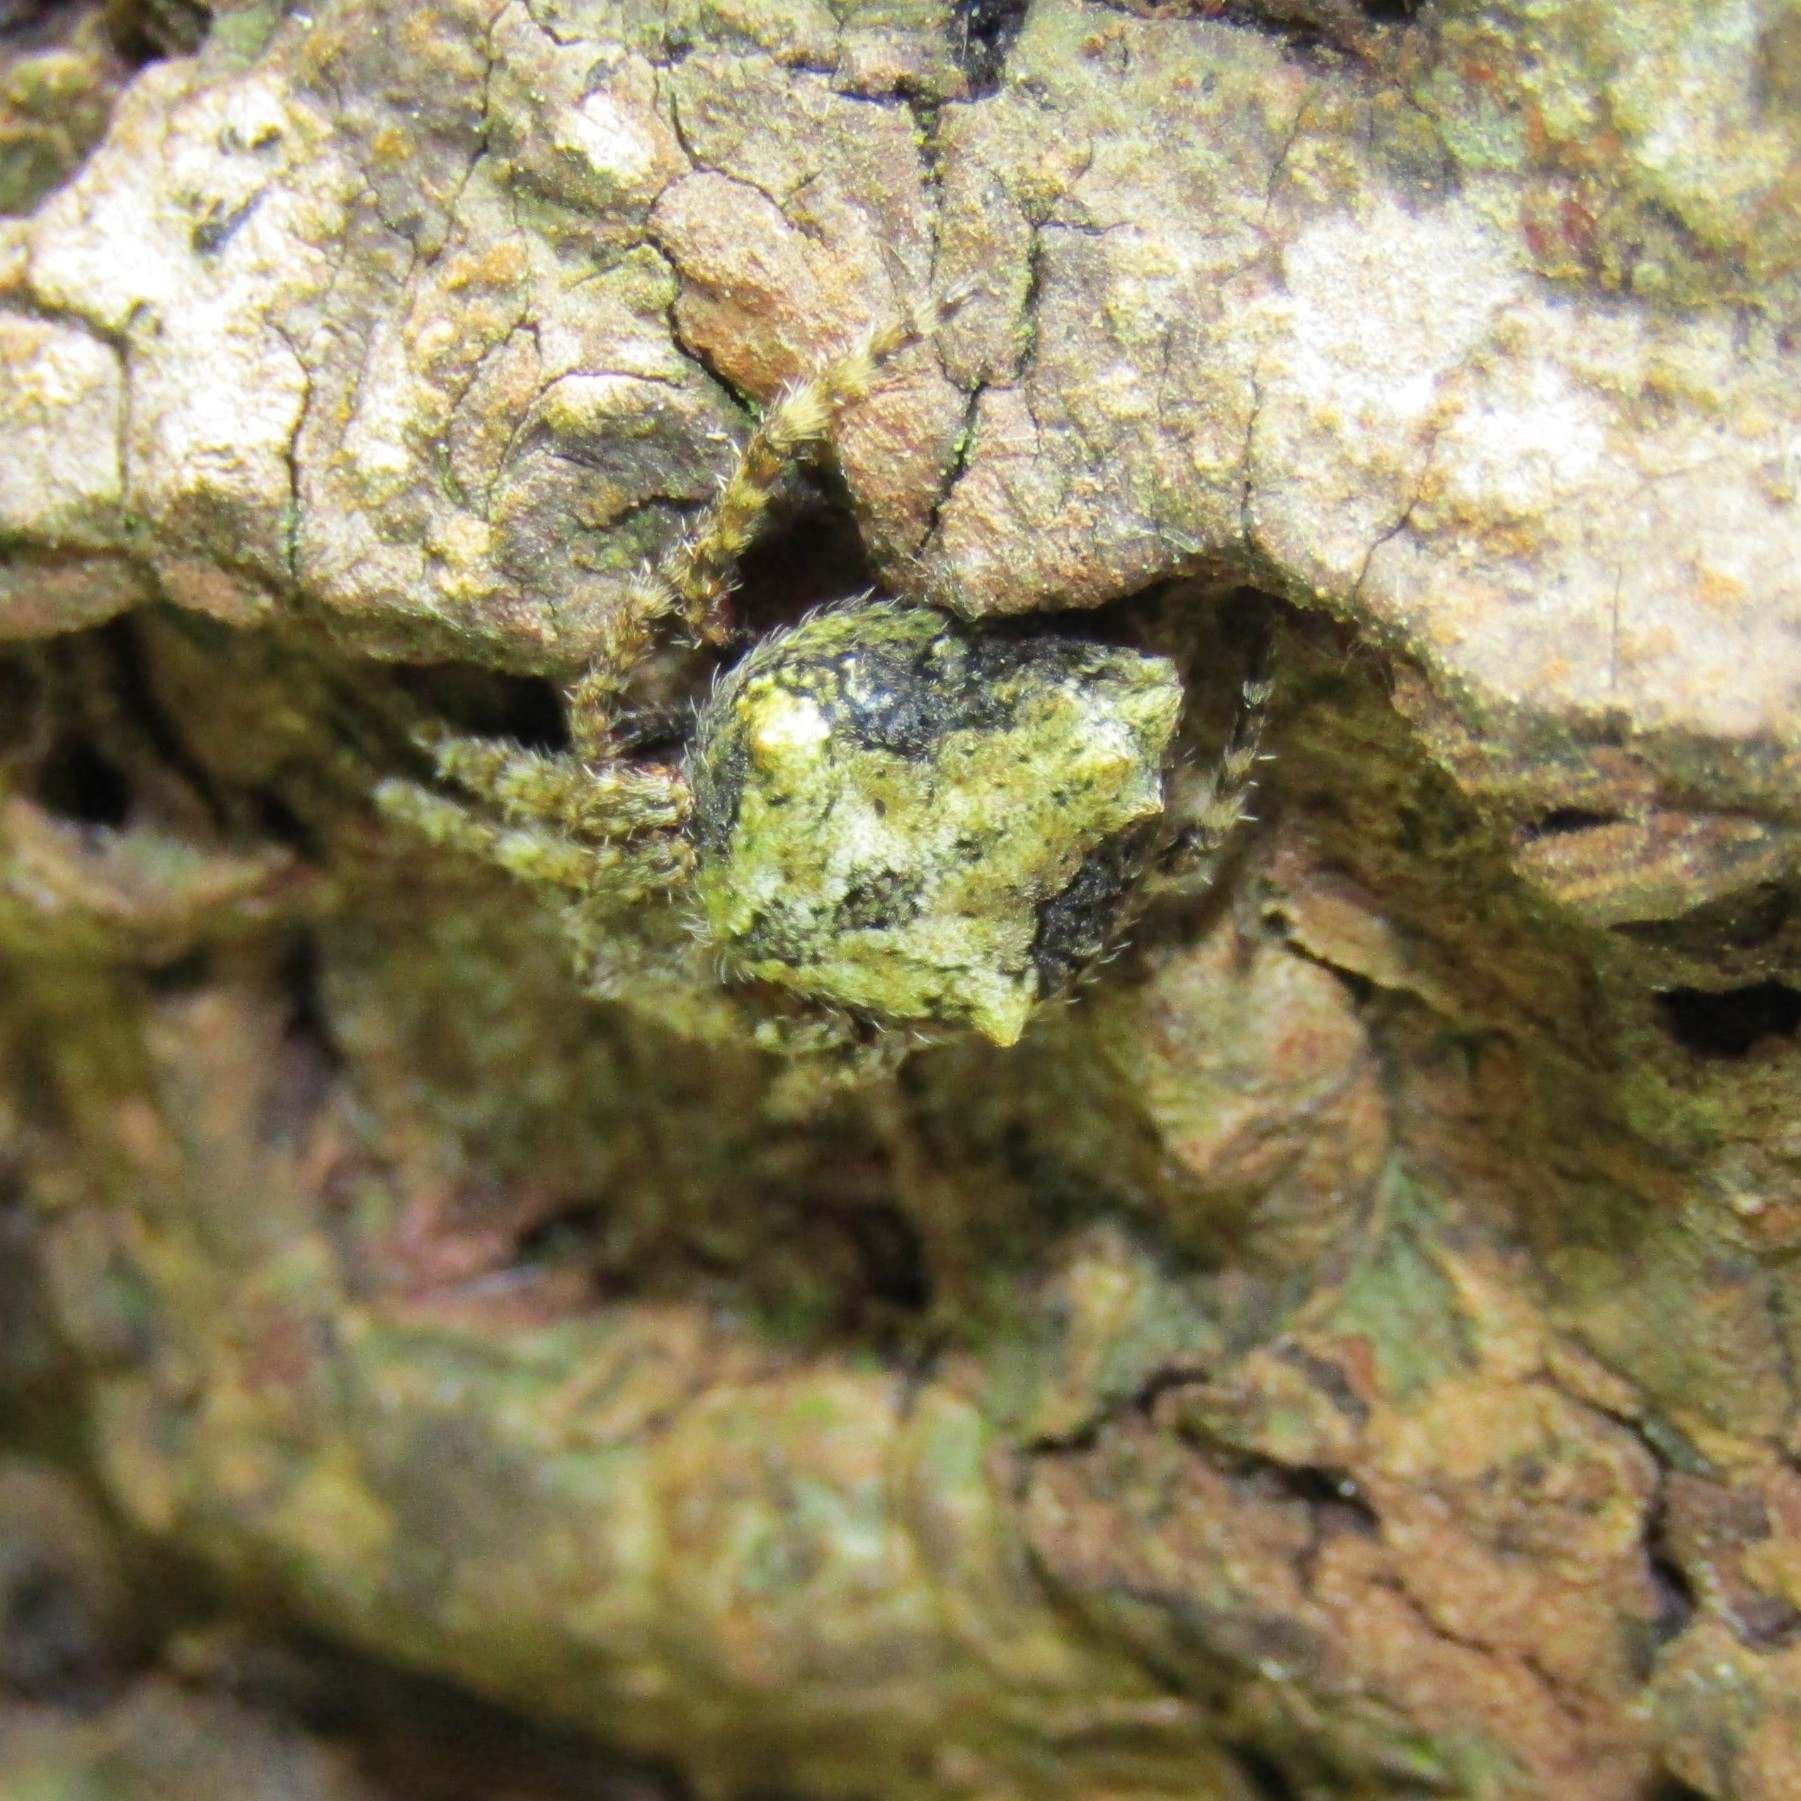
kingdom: Animalia
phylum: Arthropoda
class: Arachnida
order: Araneae
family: Araneidae
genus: Eriophora
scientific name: Eriophora pustulosa
